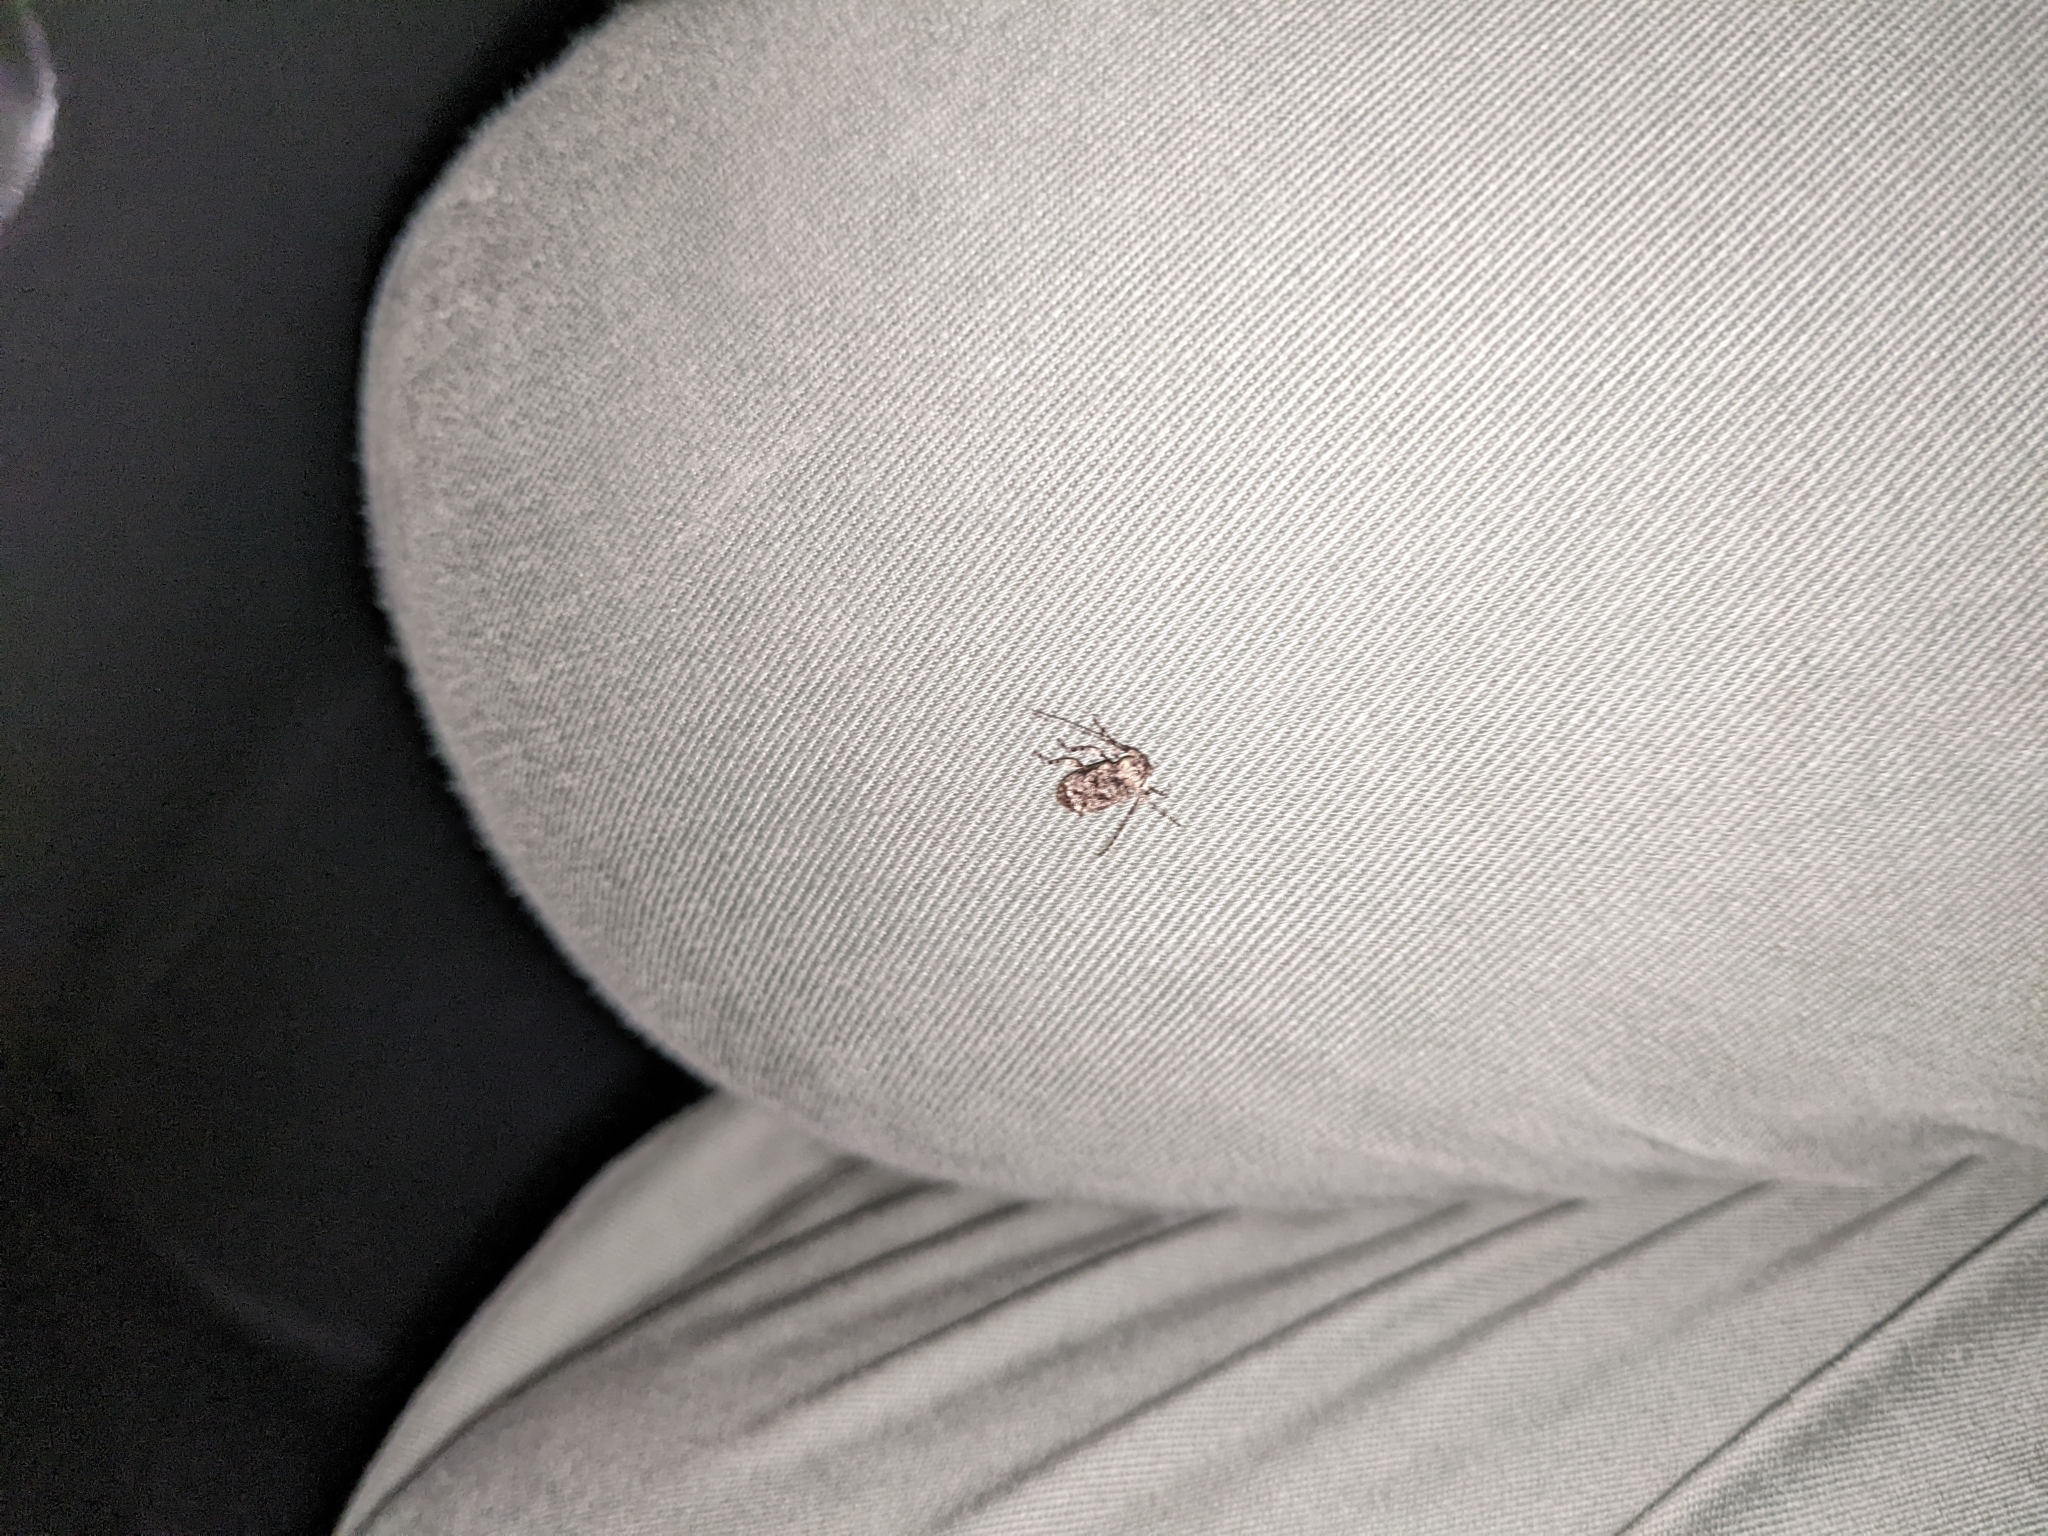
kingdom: Animalia
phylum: Arthropoda
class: Insecta
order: Coleoptera
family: Cerambycidae
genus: Leptostylus
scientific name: Leptostylus transversus
